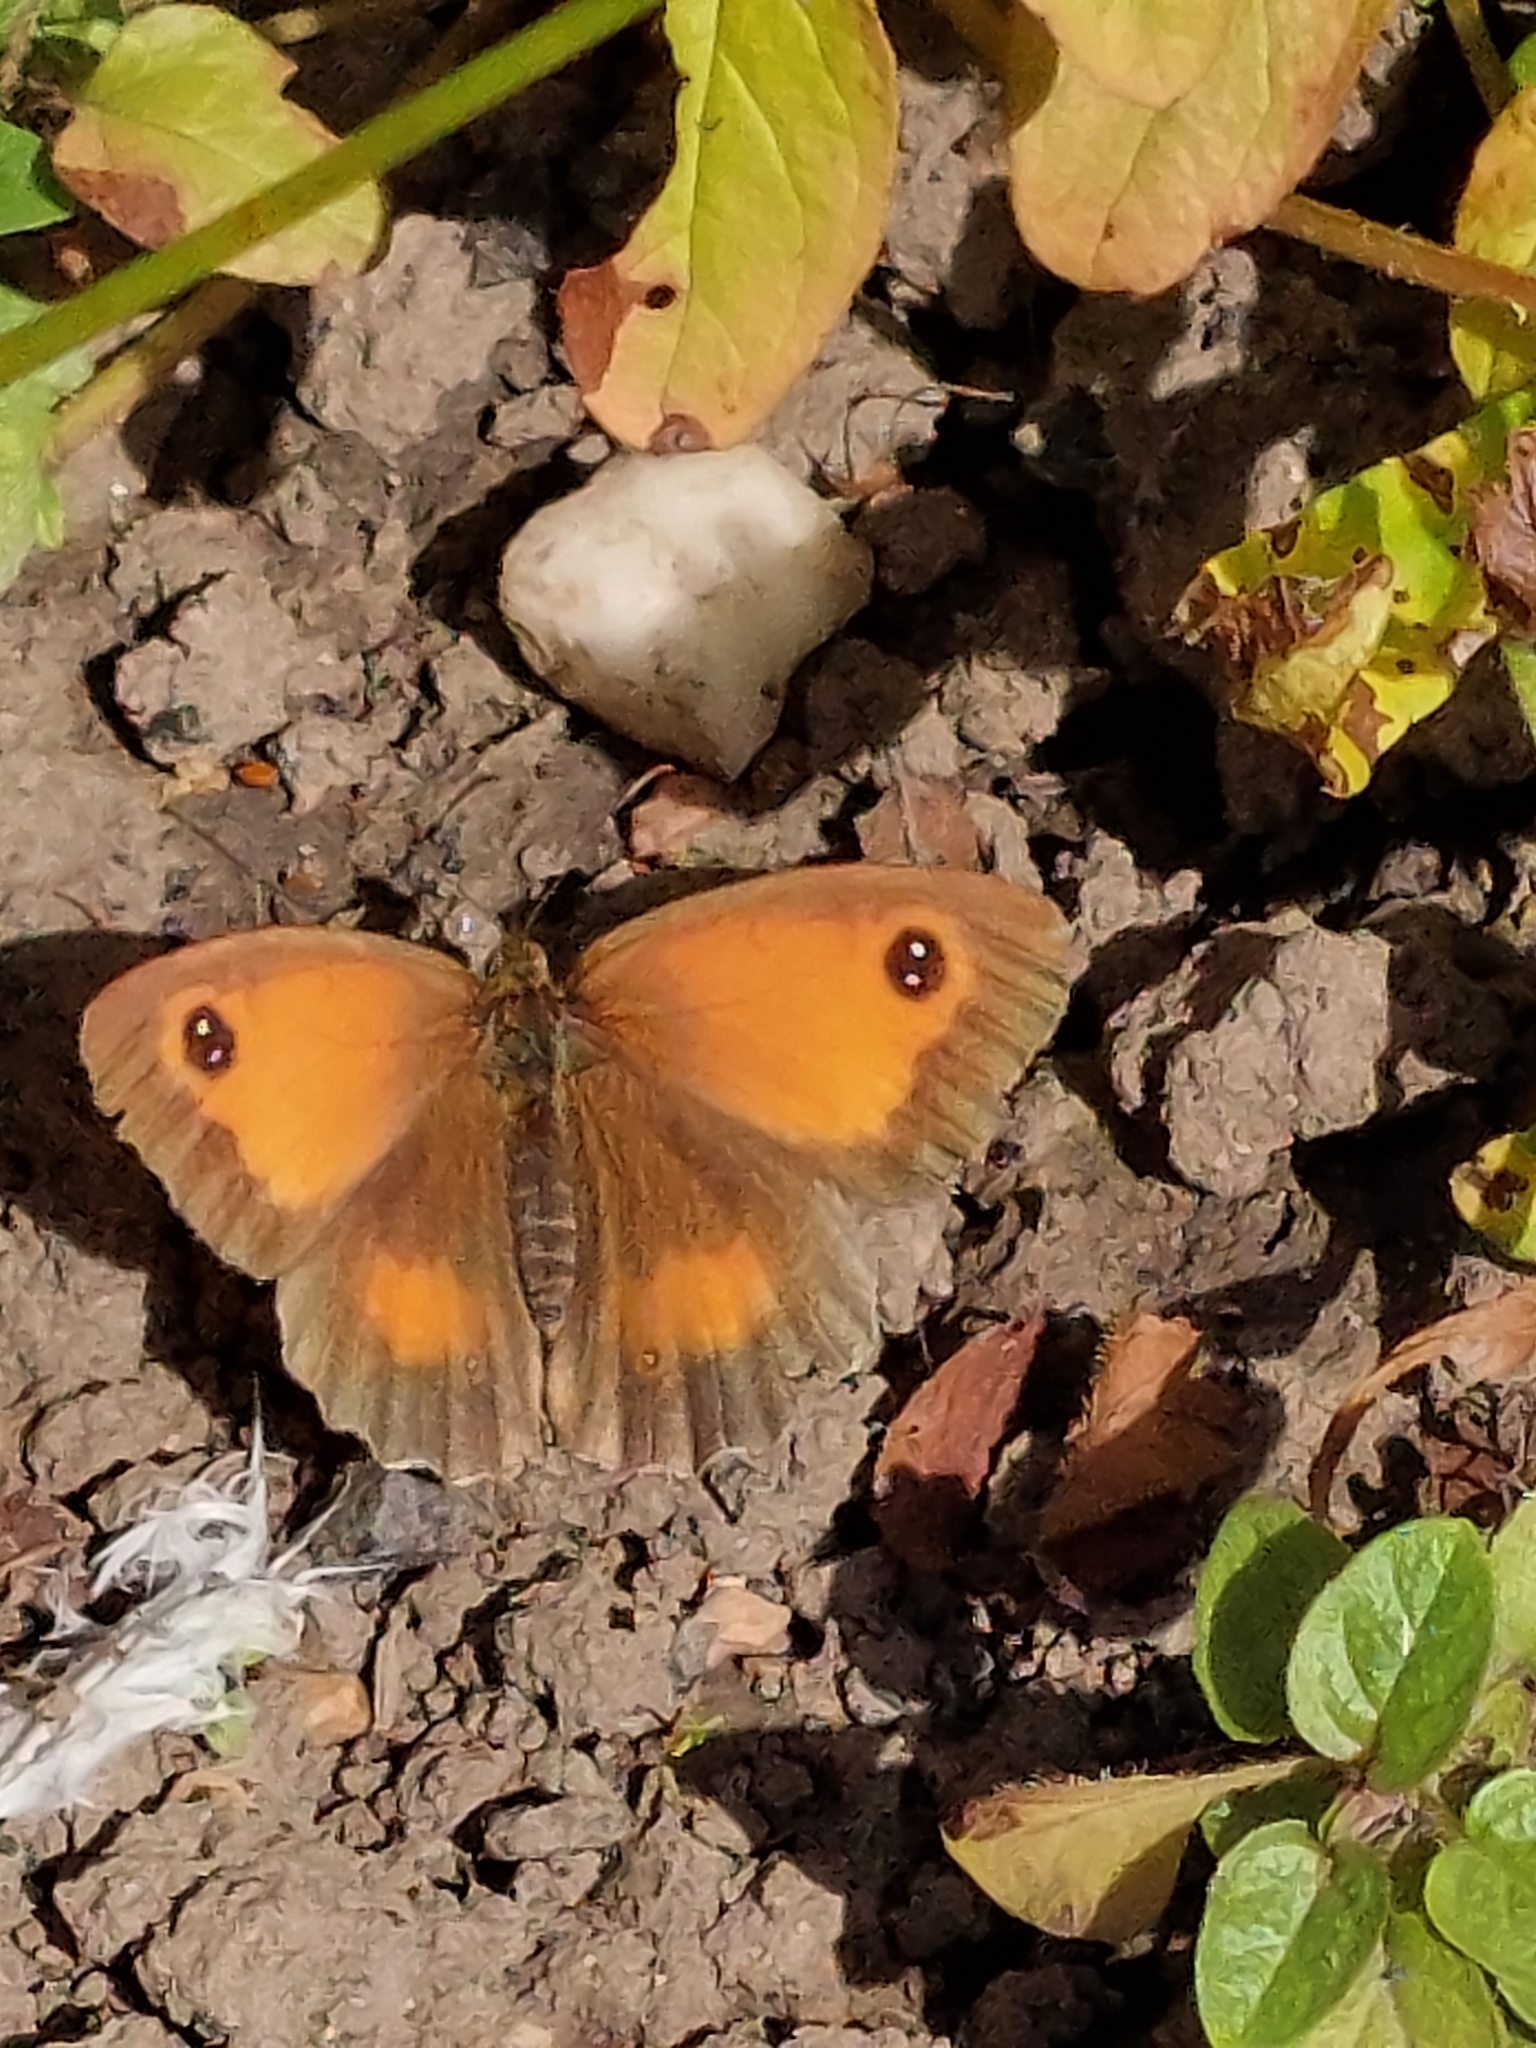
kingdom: Animalia
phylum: Arthropoda
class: Insecta
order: Lepidoptera
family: Nymphalidae
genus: Pyronia
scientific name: Pyronia tithonus
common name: Gatekeeper
